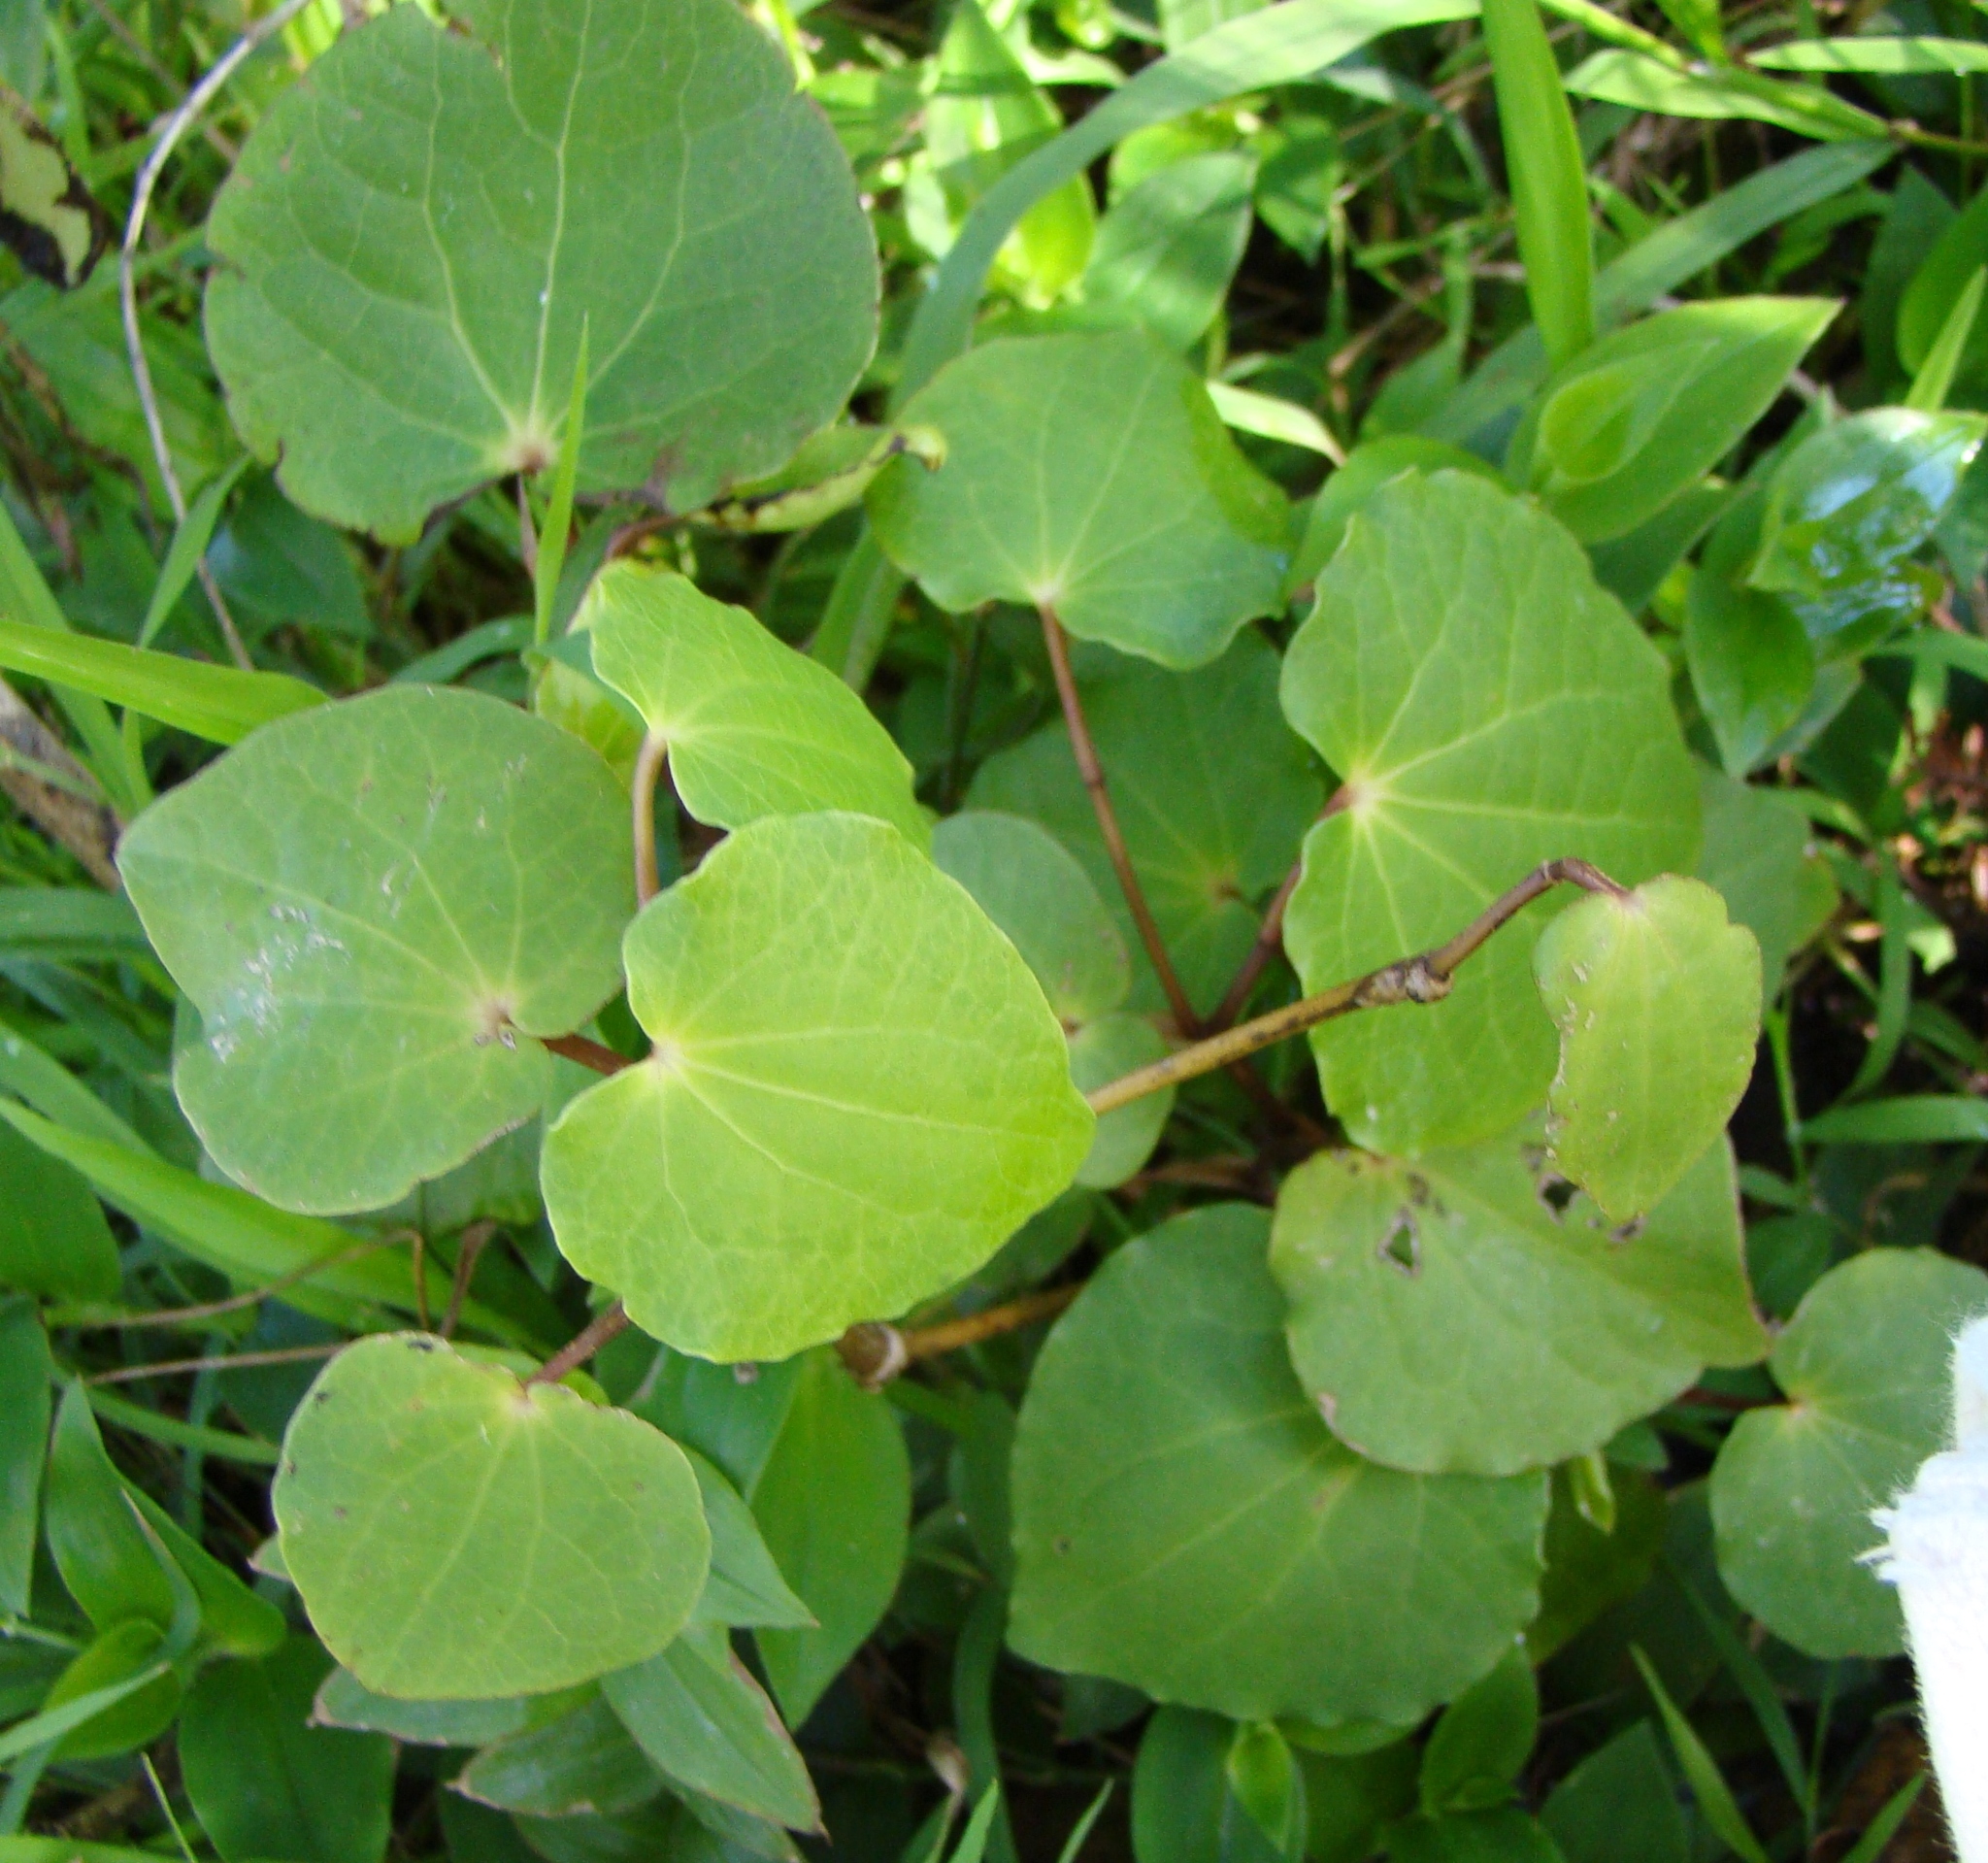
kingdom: Plantae
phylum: Tracheophyta
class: Magnoliopsida
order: Piperales
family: Piperaceae
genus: Macropiper
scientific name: Macropiper excelsum
